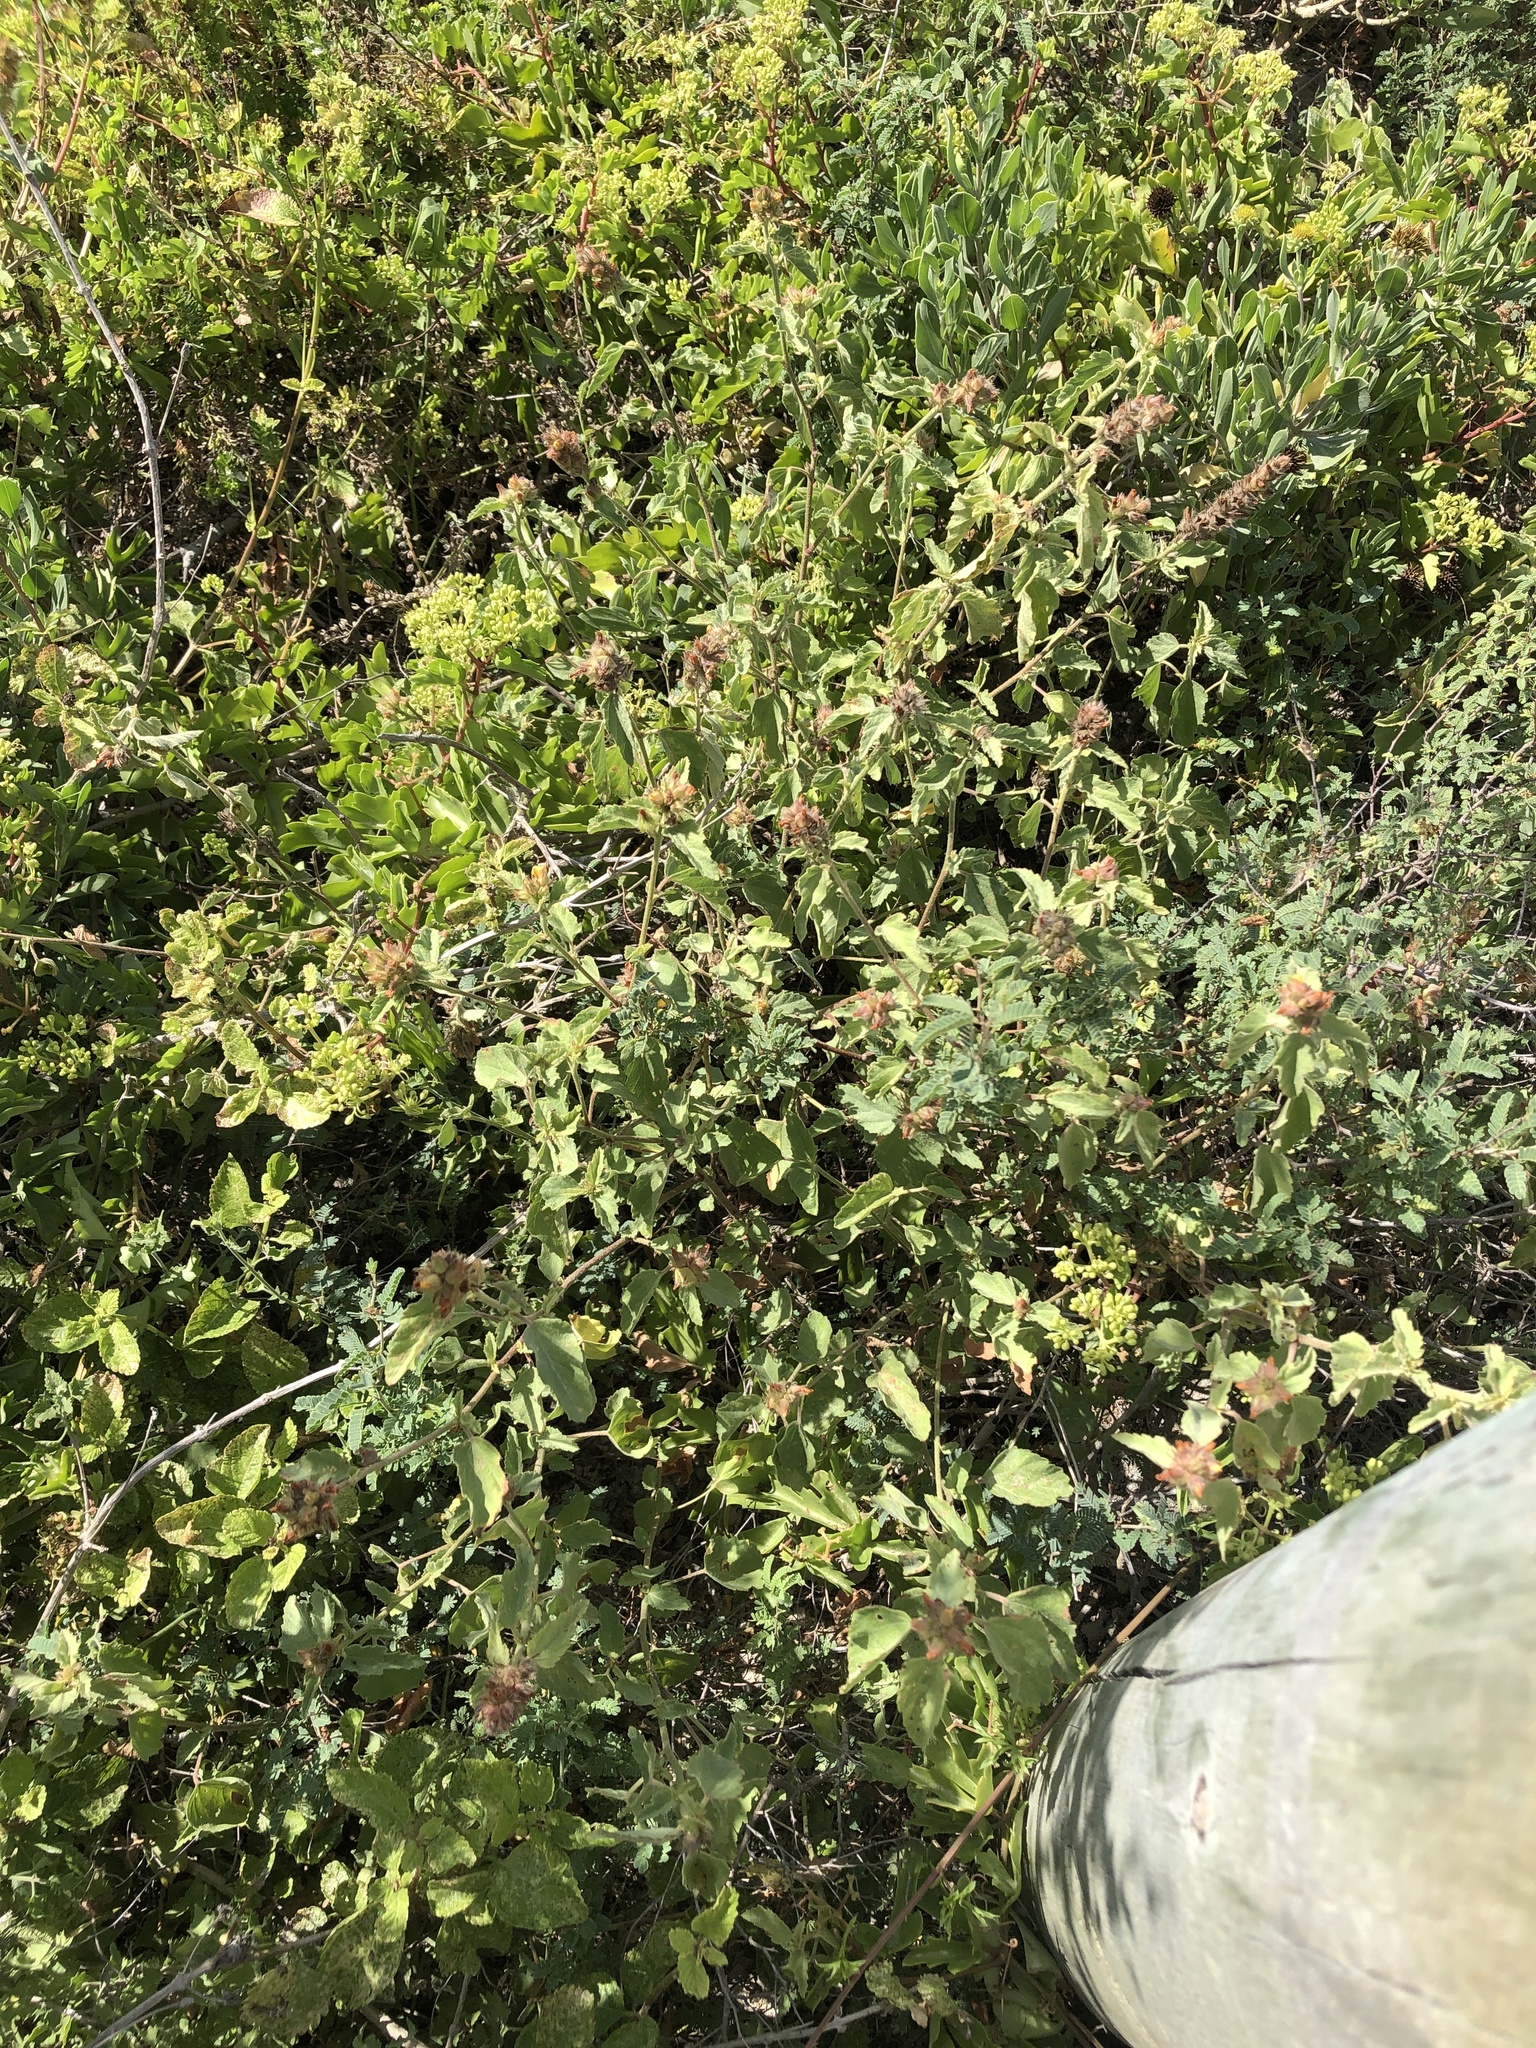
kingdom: Plantae
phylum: Tracheophyta
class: Magnoliopsida
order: Malvales
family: Malvaceae
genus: Malvastrum
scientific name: Malvastrum americanum
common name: Spiked malvastrum
